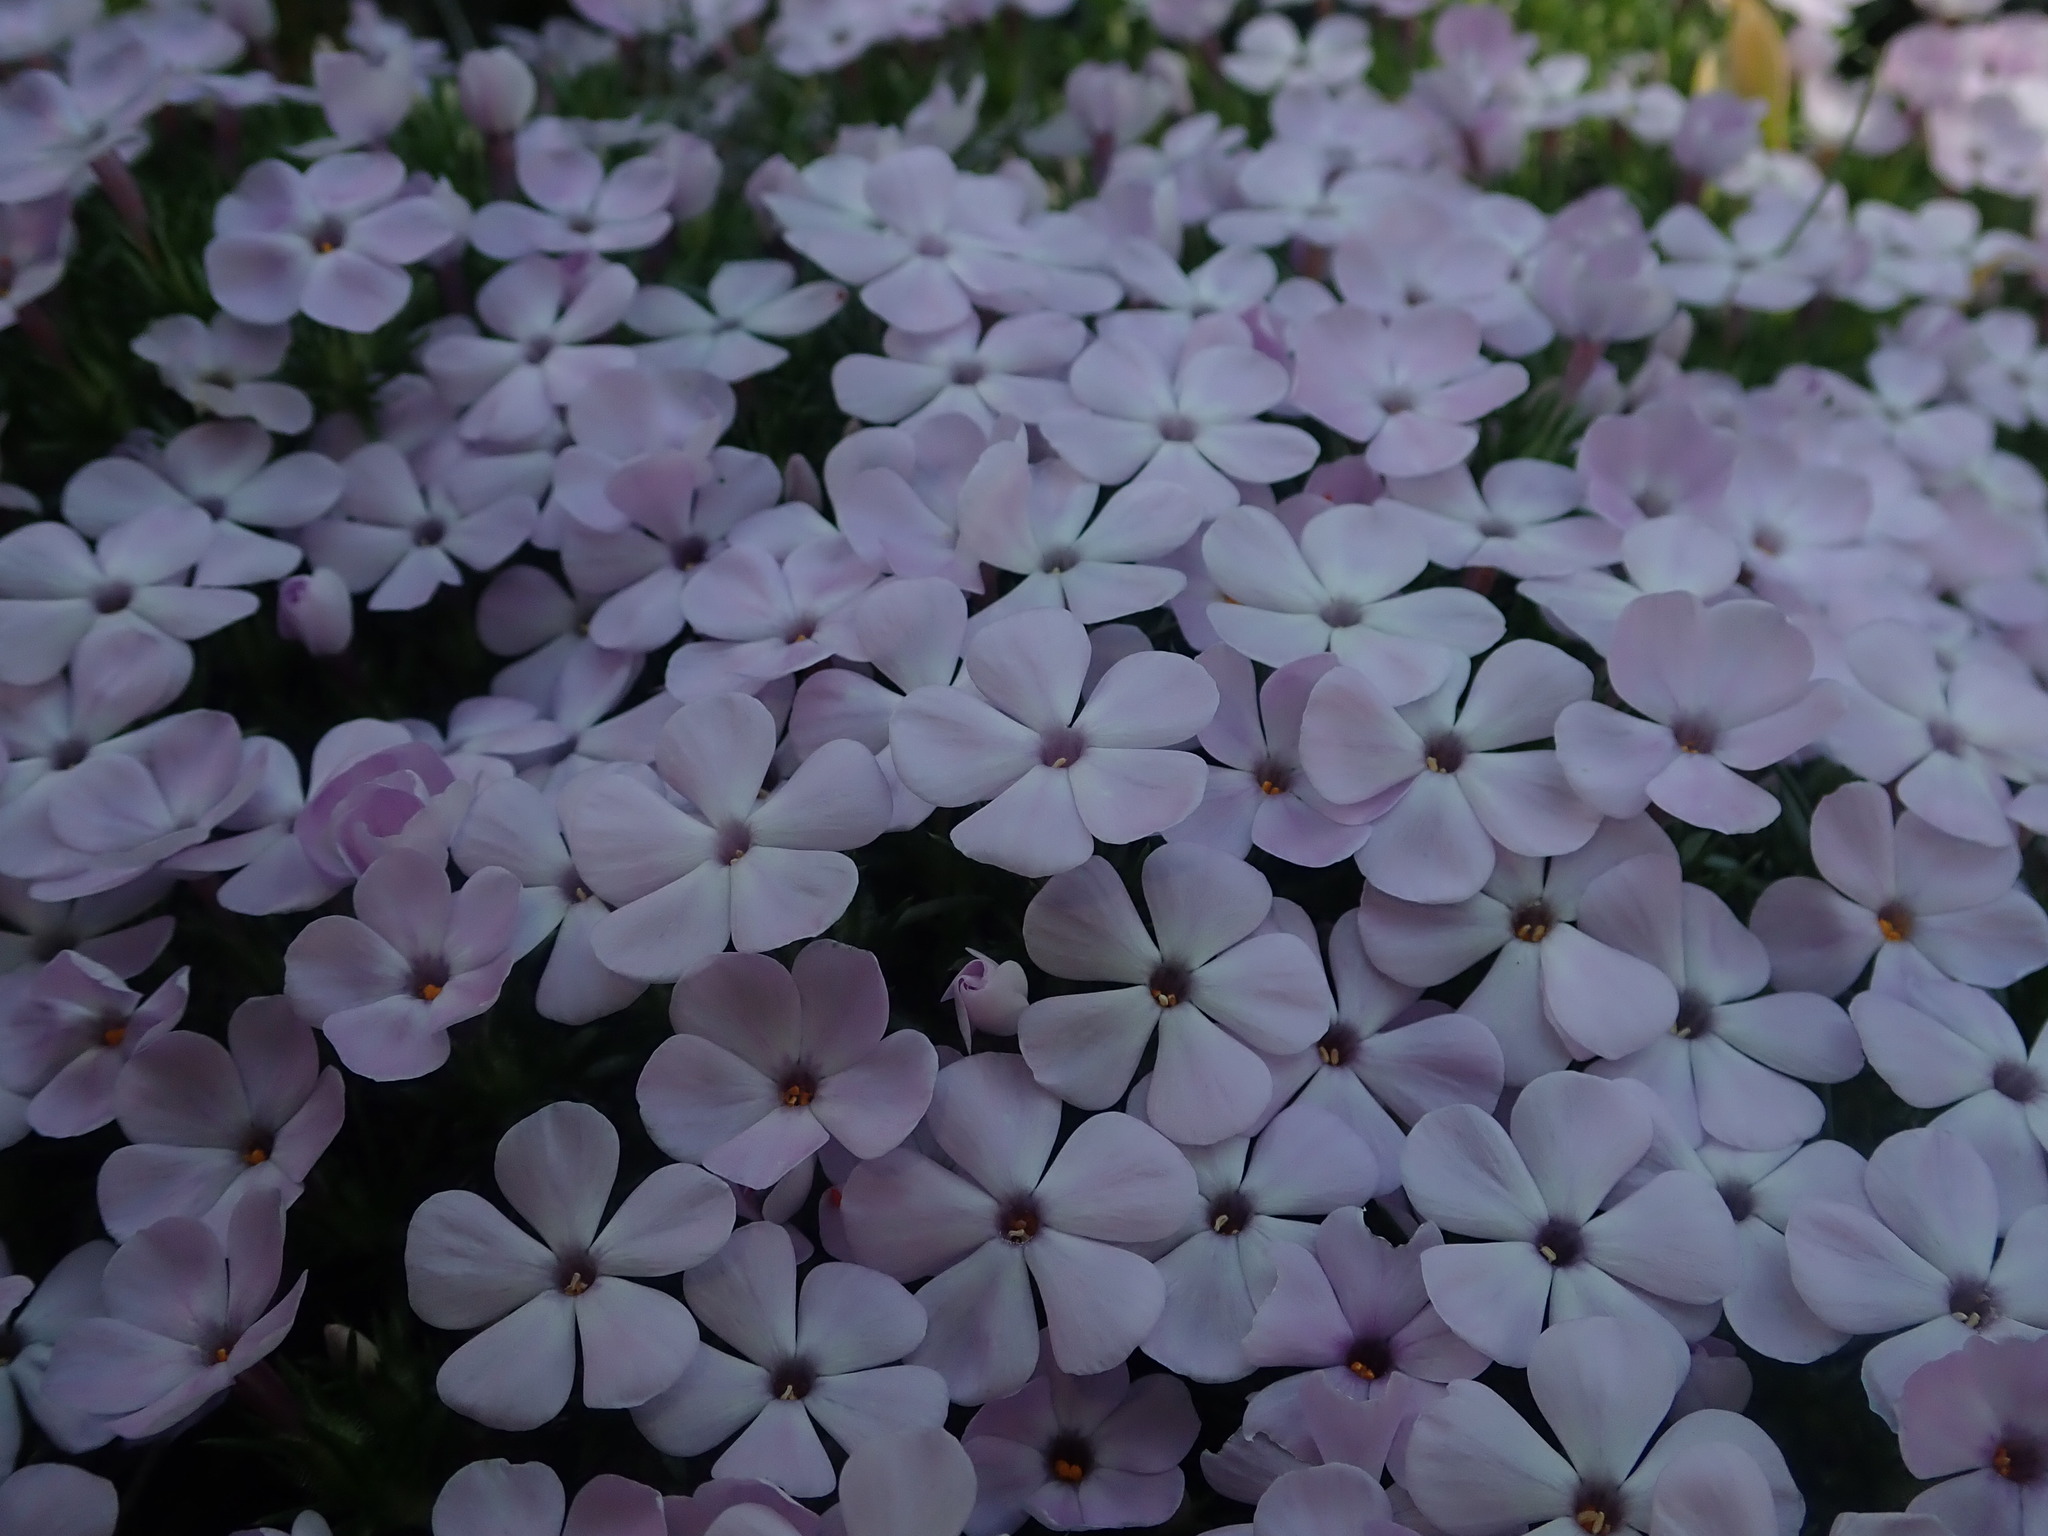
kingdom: Plantae
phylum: Tracheophyta
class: Magnoliopsida
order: Ericales
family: Polemoniaceae
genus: Phlox
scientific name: Phlox diffusa
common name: Mat phlox
